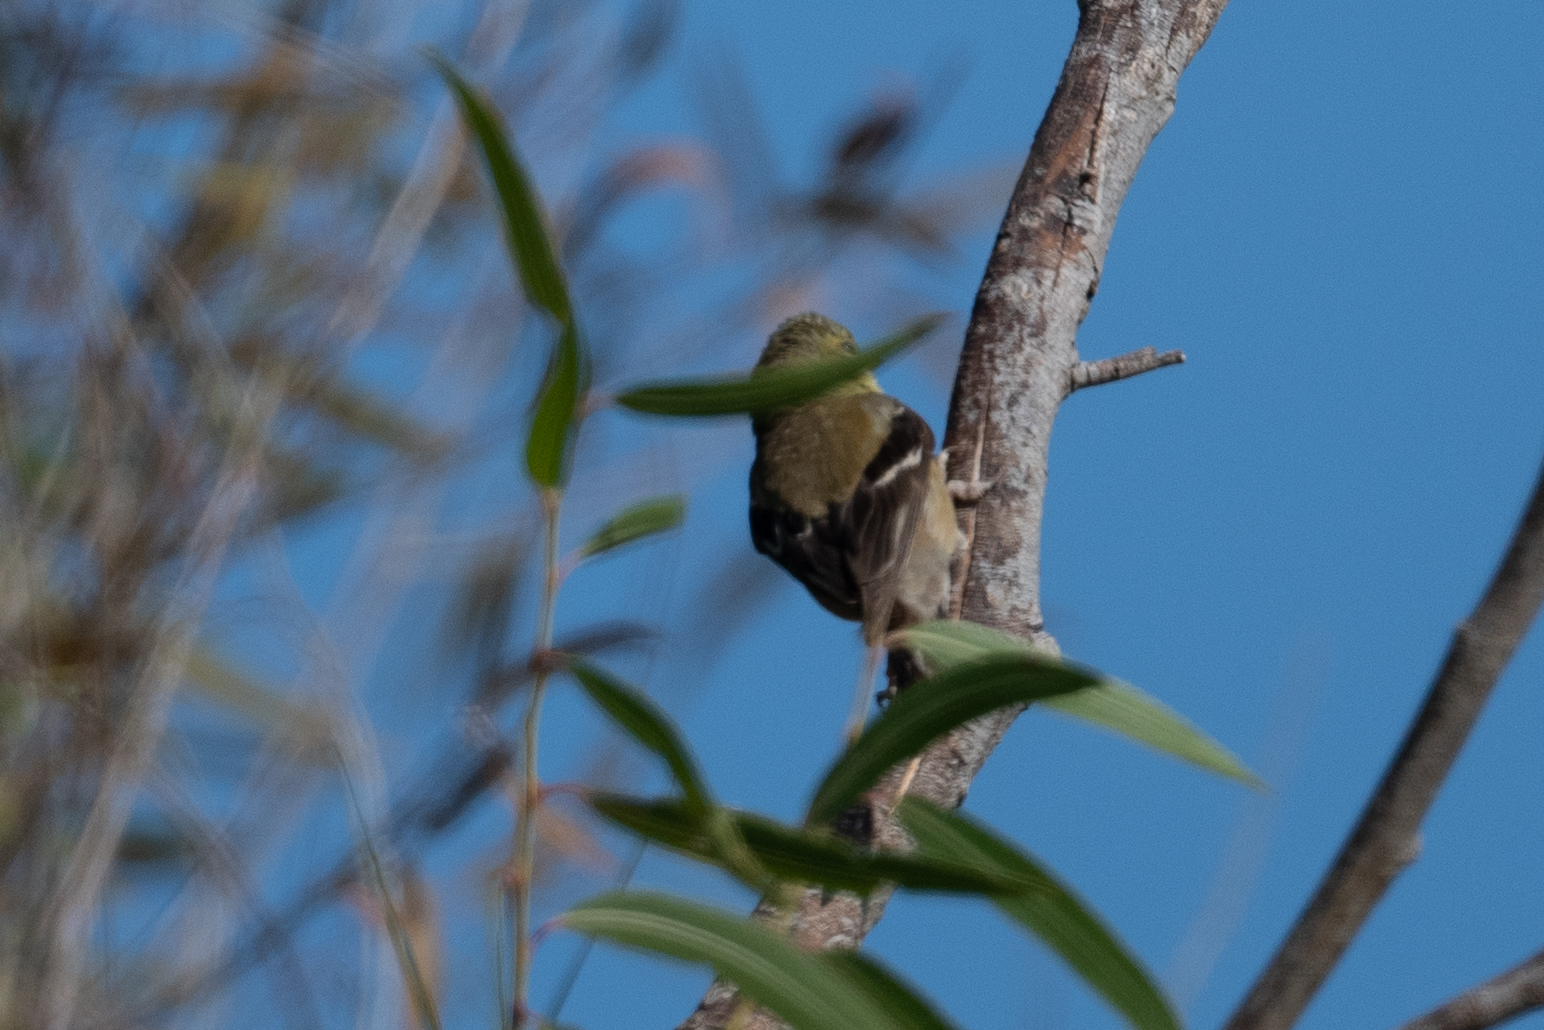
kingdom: Animalia
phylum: Chordata
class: Aves
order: Passeriformes
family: Fringillidae
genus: Spinus
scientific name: Spinus psaltria
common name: Lesser goldfinch
